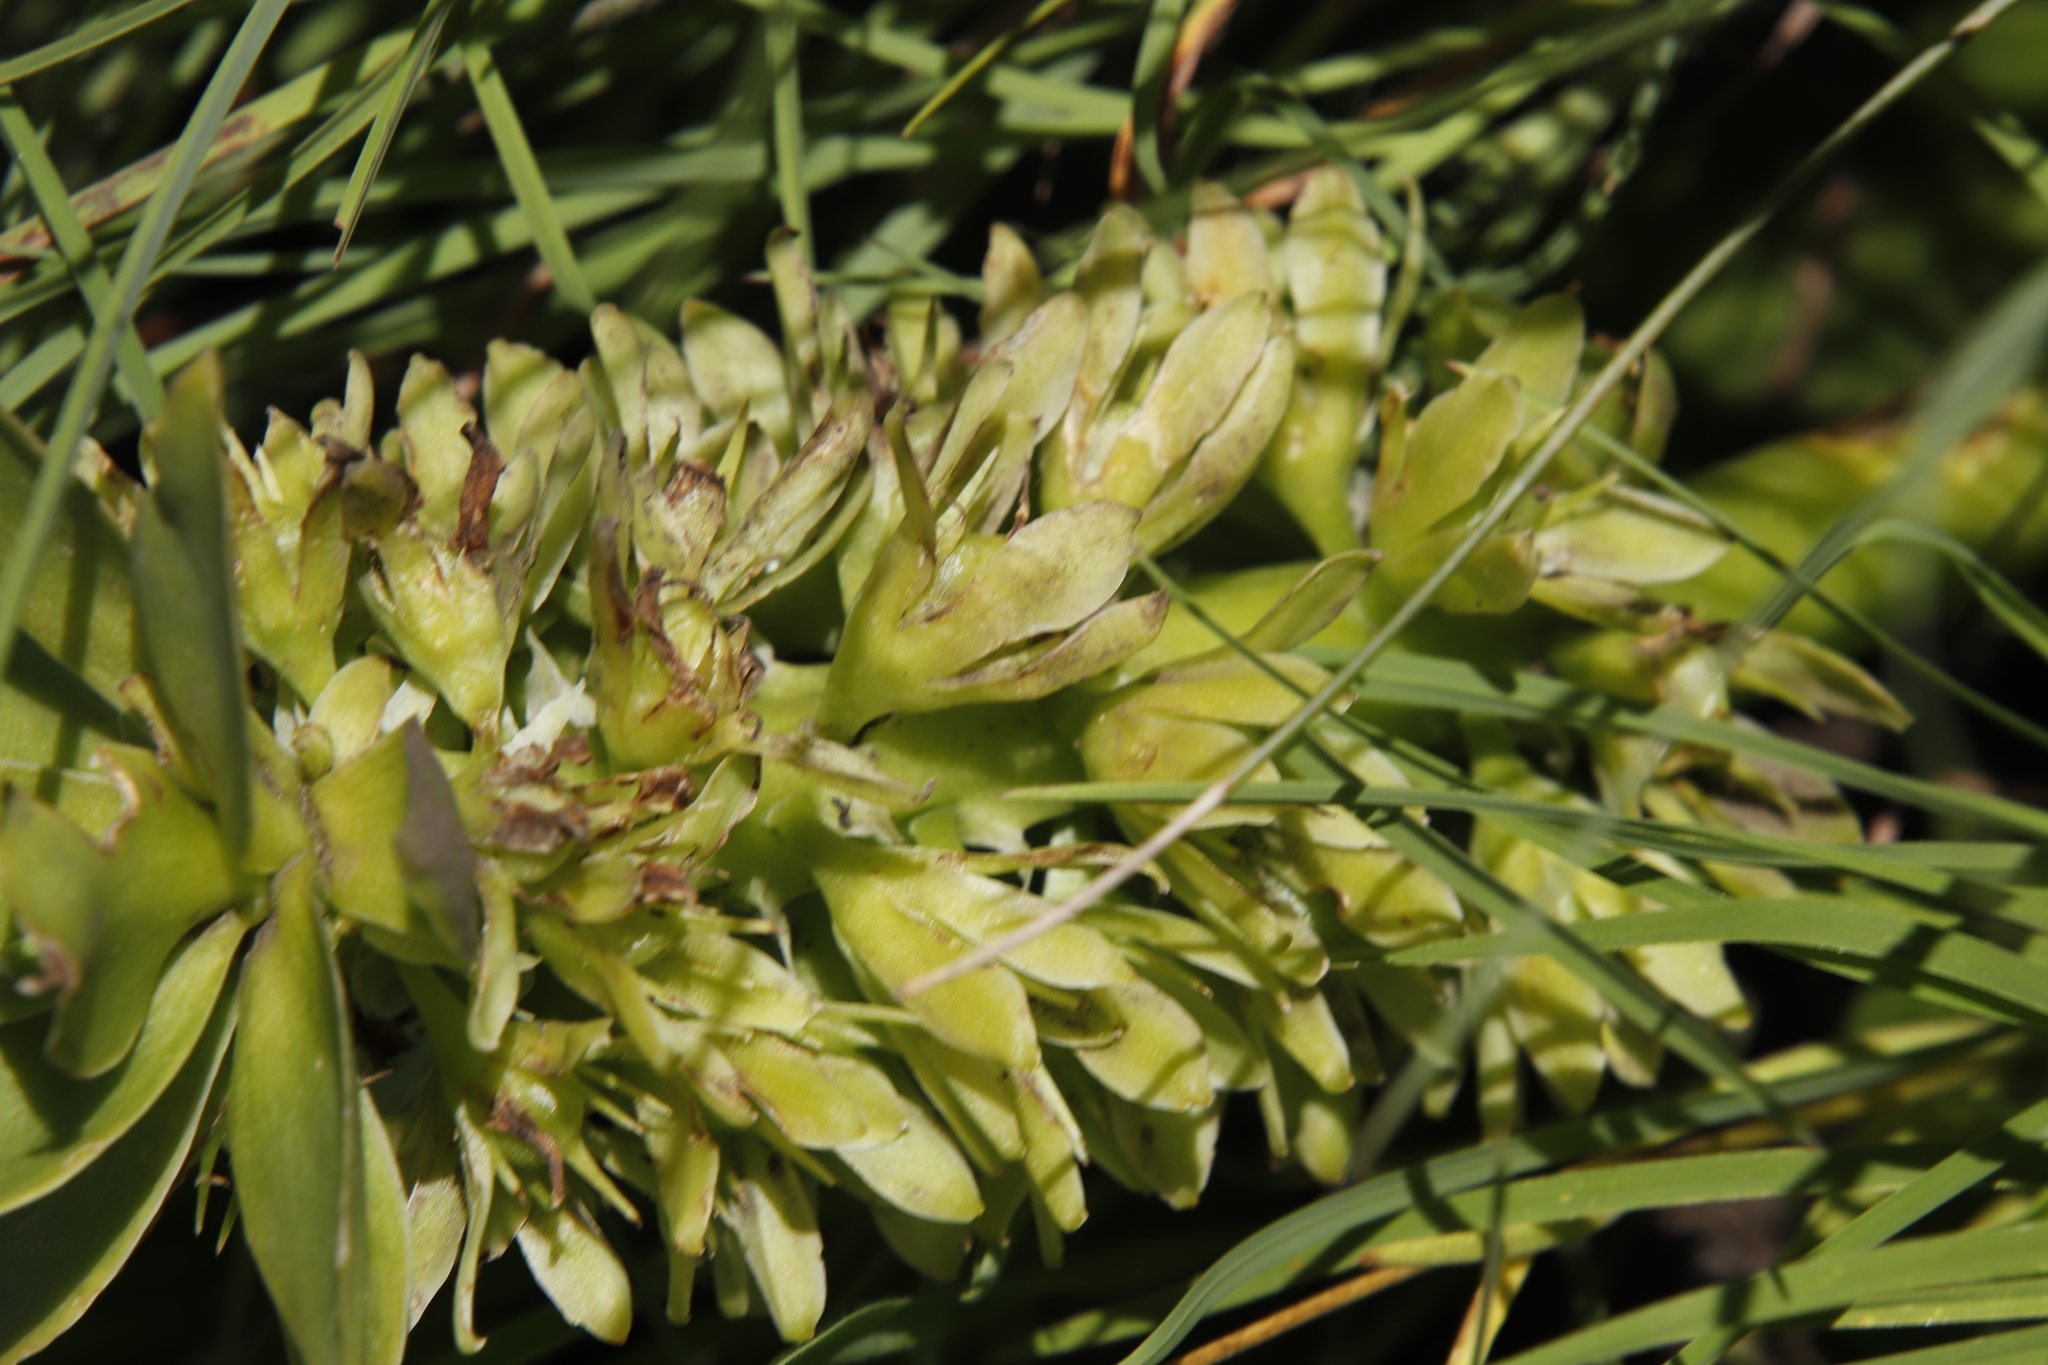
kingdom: Plantae
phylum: Tracheophyta
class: Liliopsida
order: Asparagales
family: Asparagaceae
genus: Eucomis
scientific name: Eucomis autumnalis
